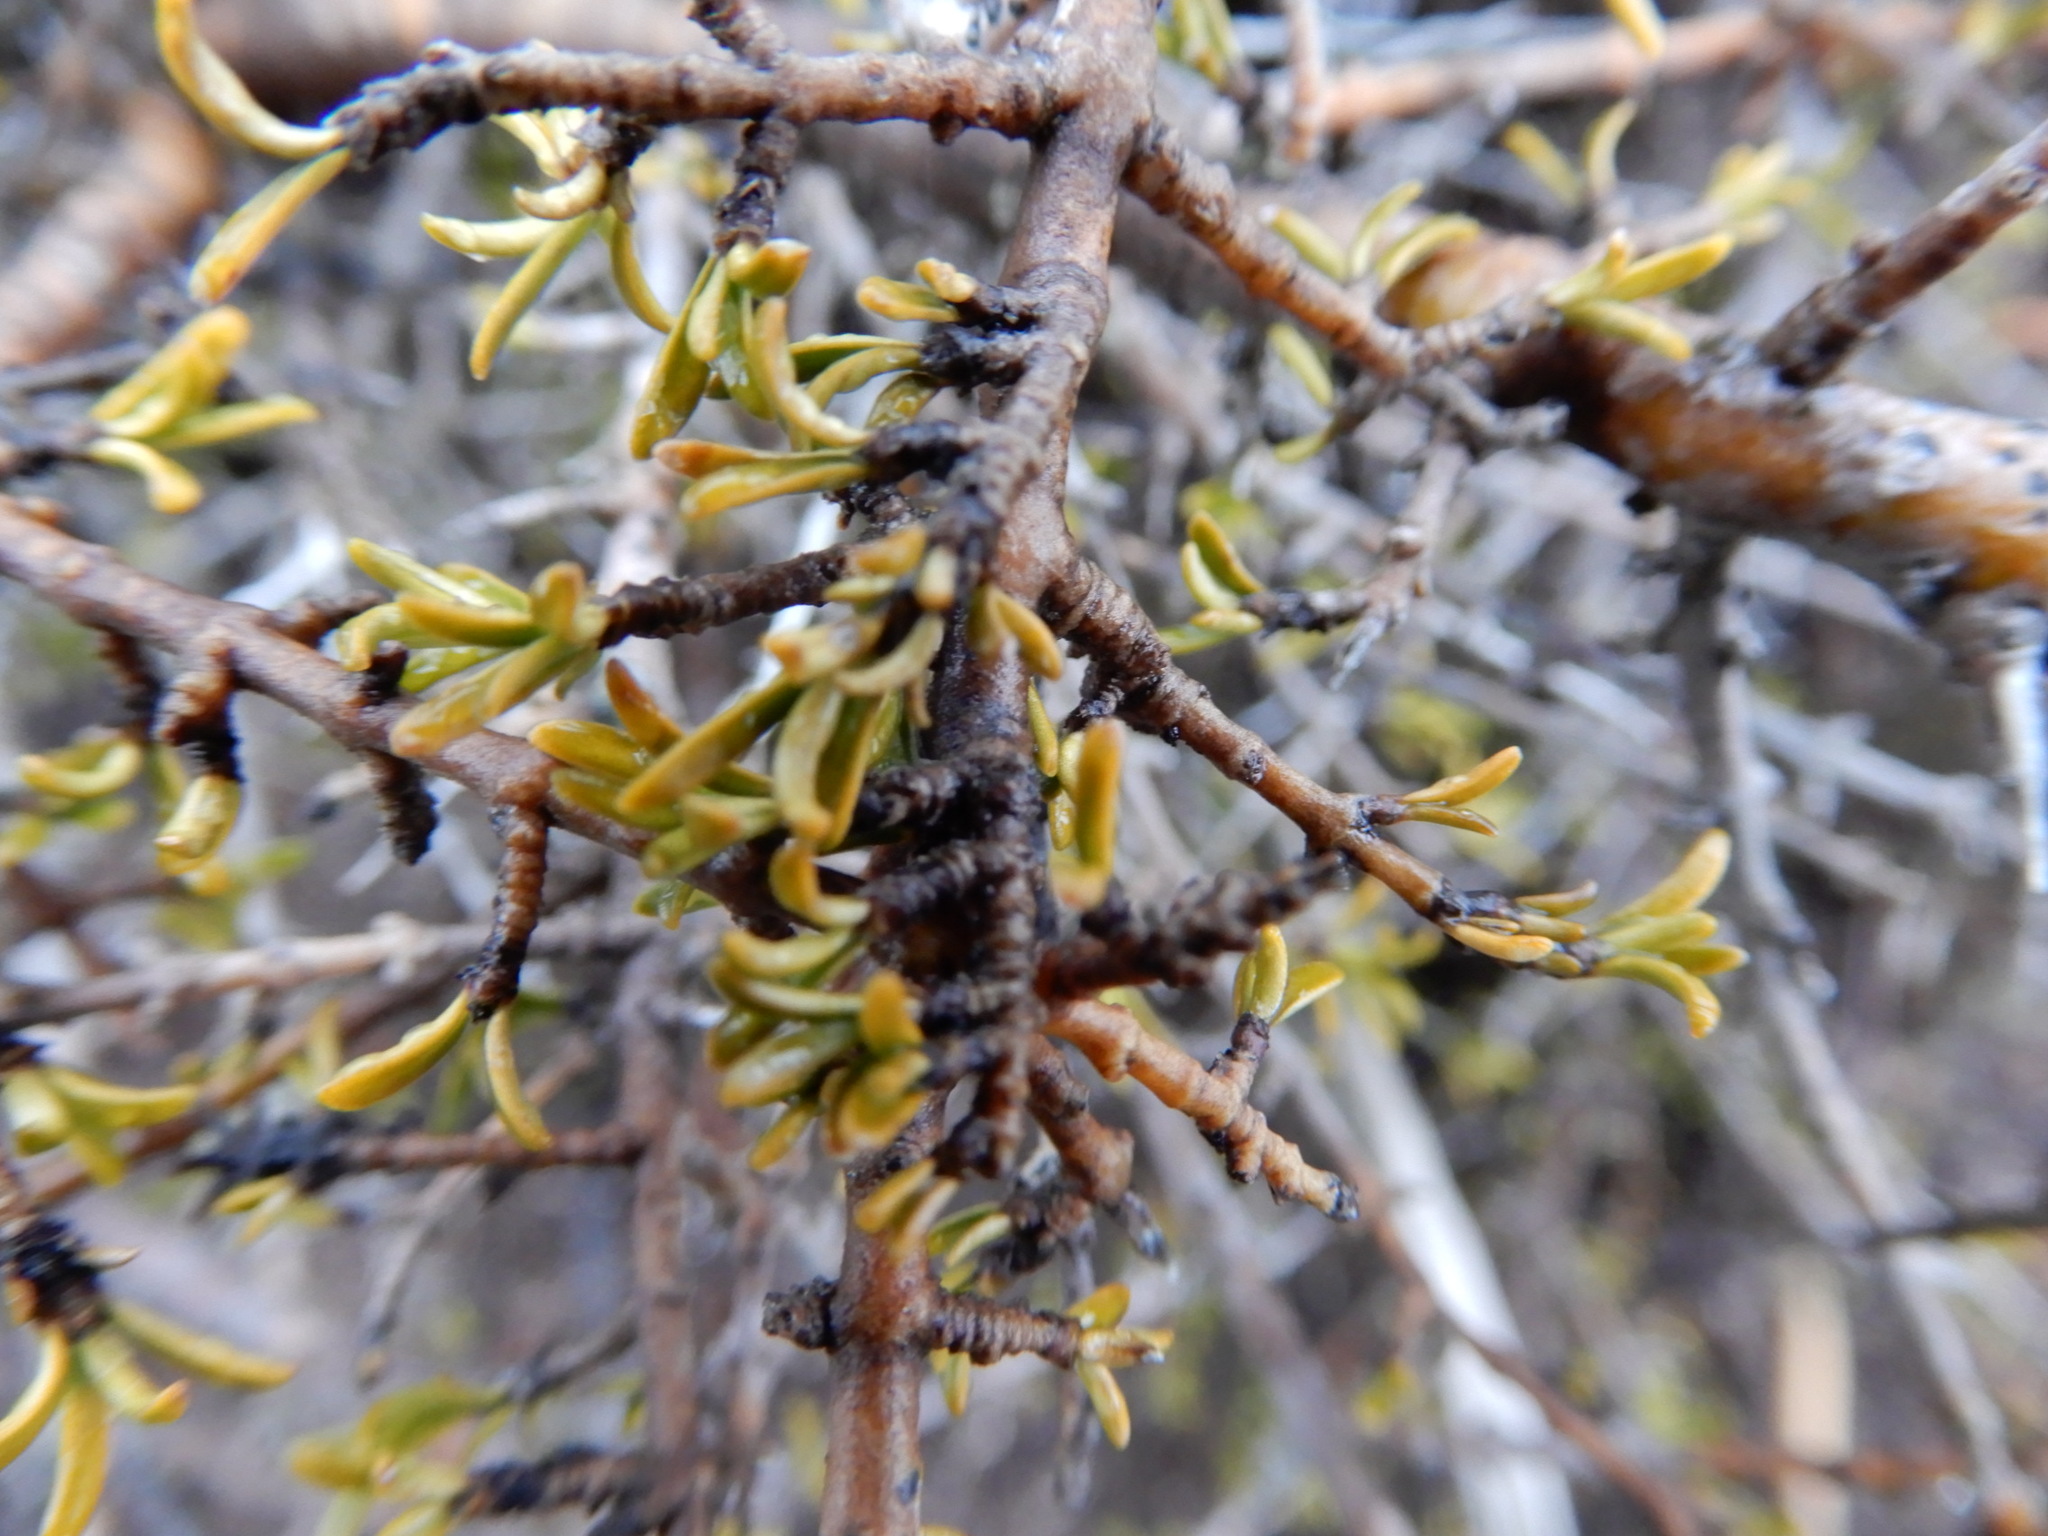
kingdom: Plantae
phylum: Tracheophyta
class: Magnoliopsida
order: Gentianales
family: Rubiaceae
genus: Coprosma
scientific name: Coprosma cheesemanii
